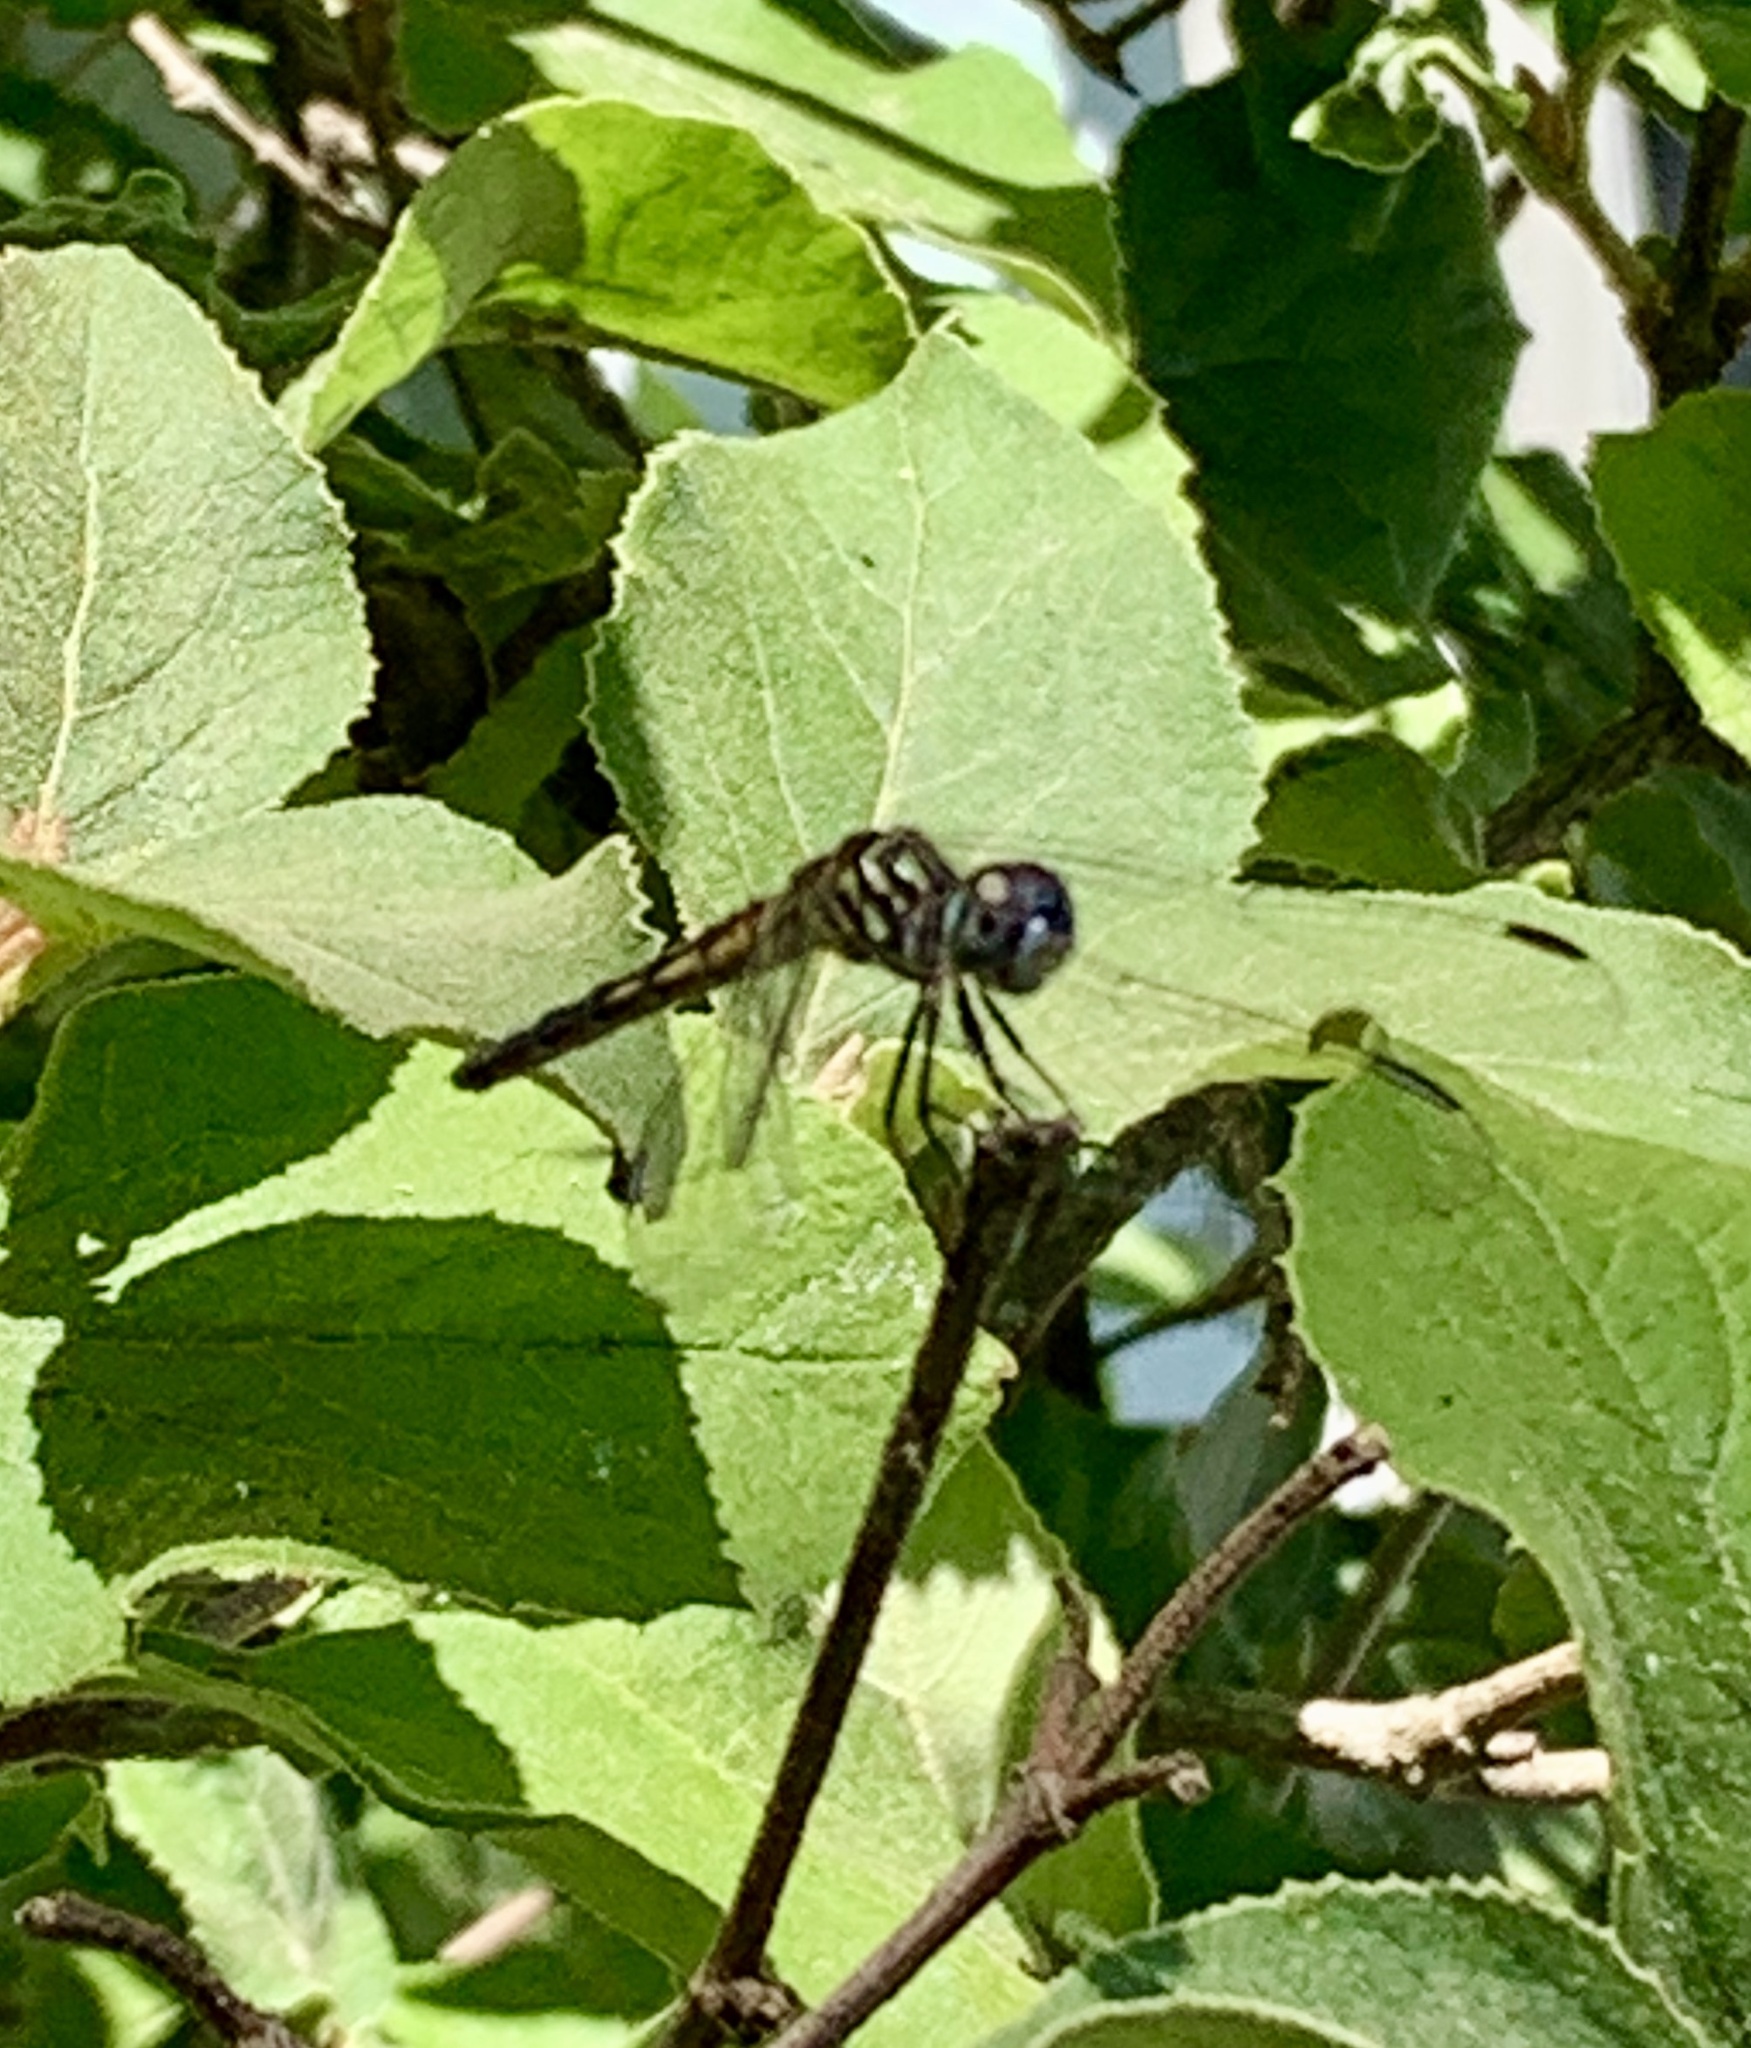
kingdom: Animalia
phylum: Arthropoda
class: Insecta
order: Odonata
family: Libellulidae
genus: Pachydiplax
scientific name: Pachydiplax longipennis
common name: Blue dasher
